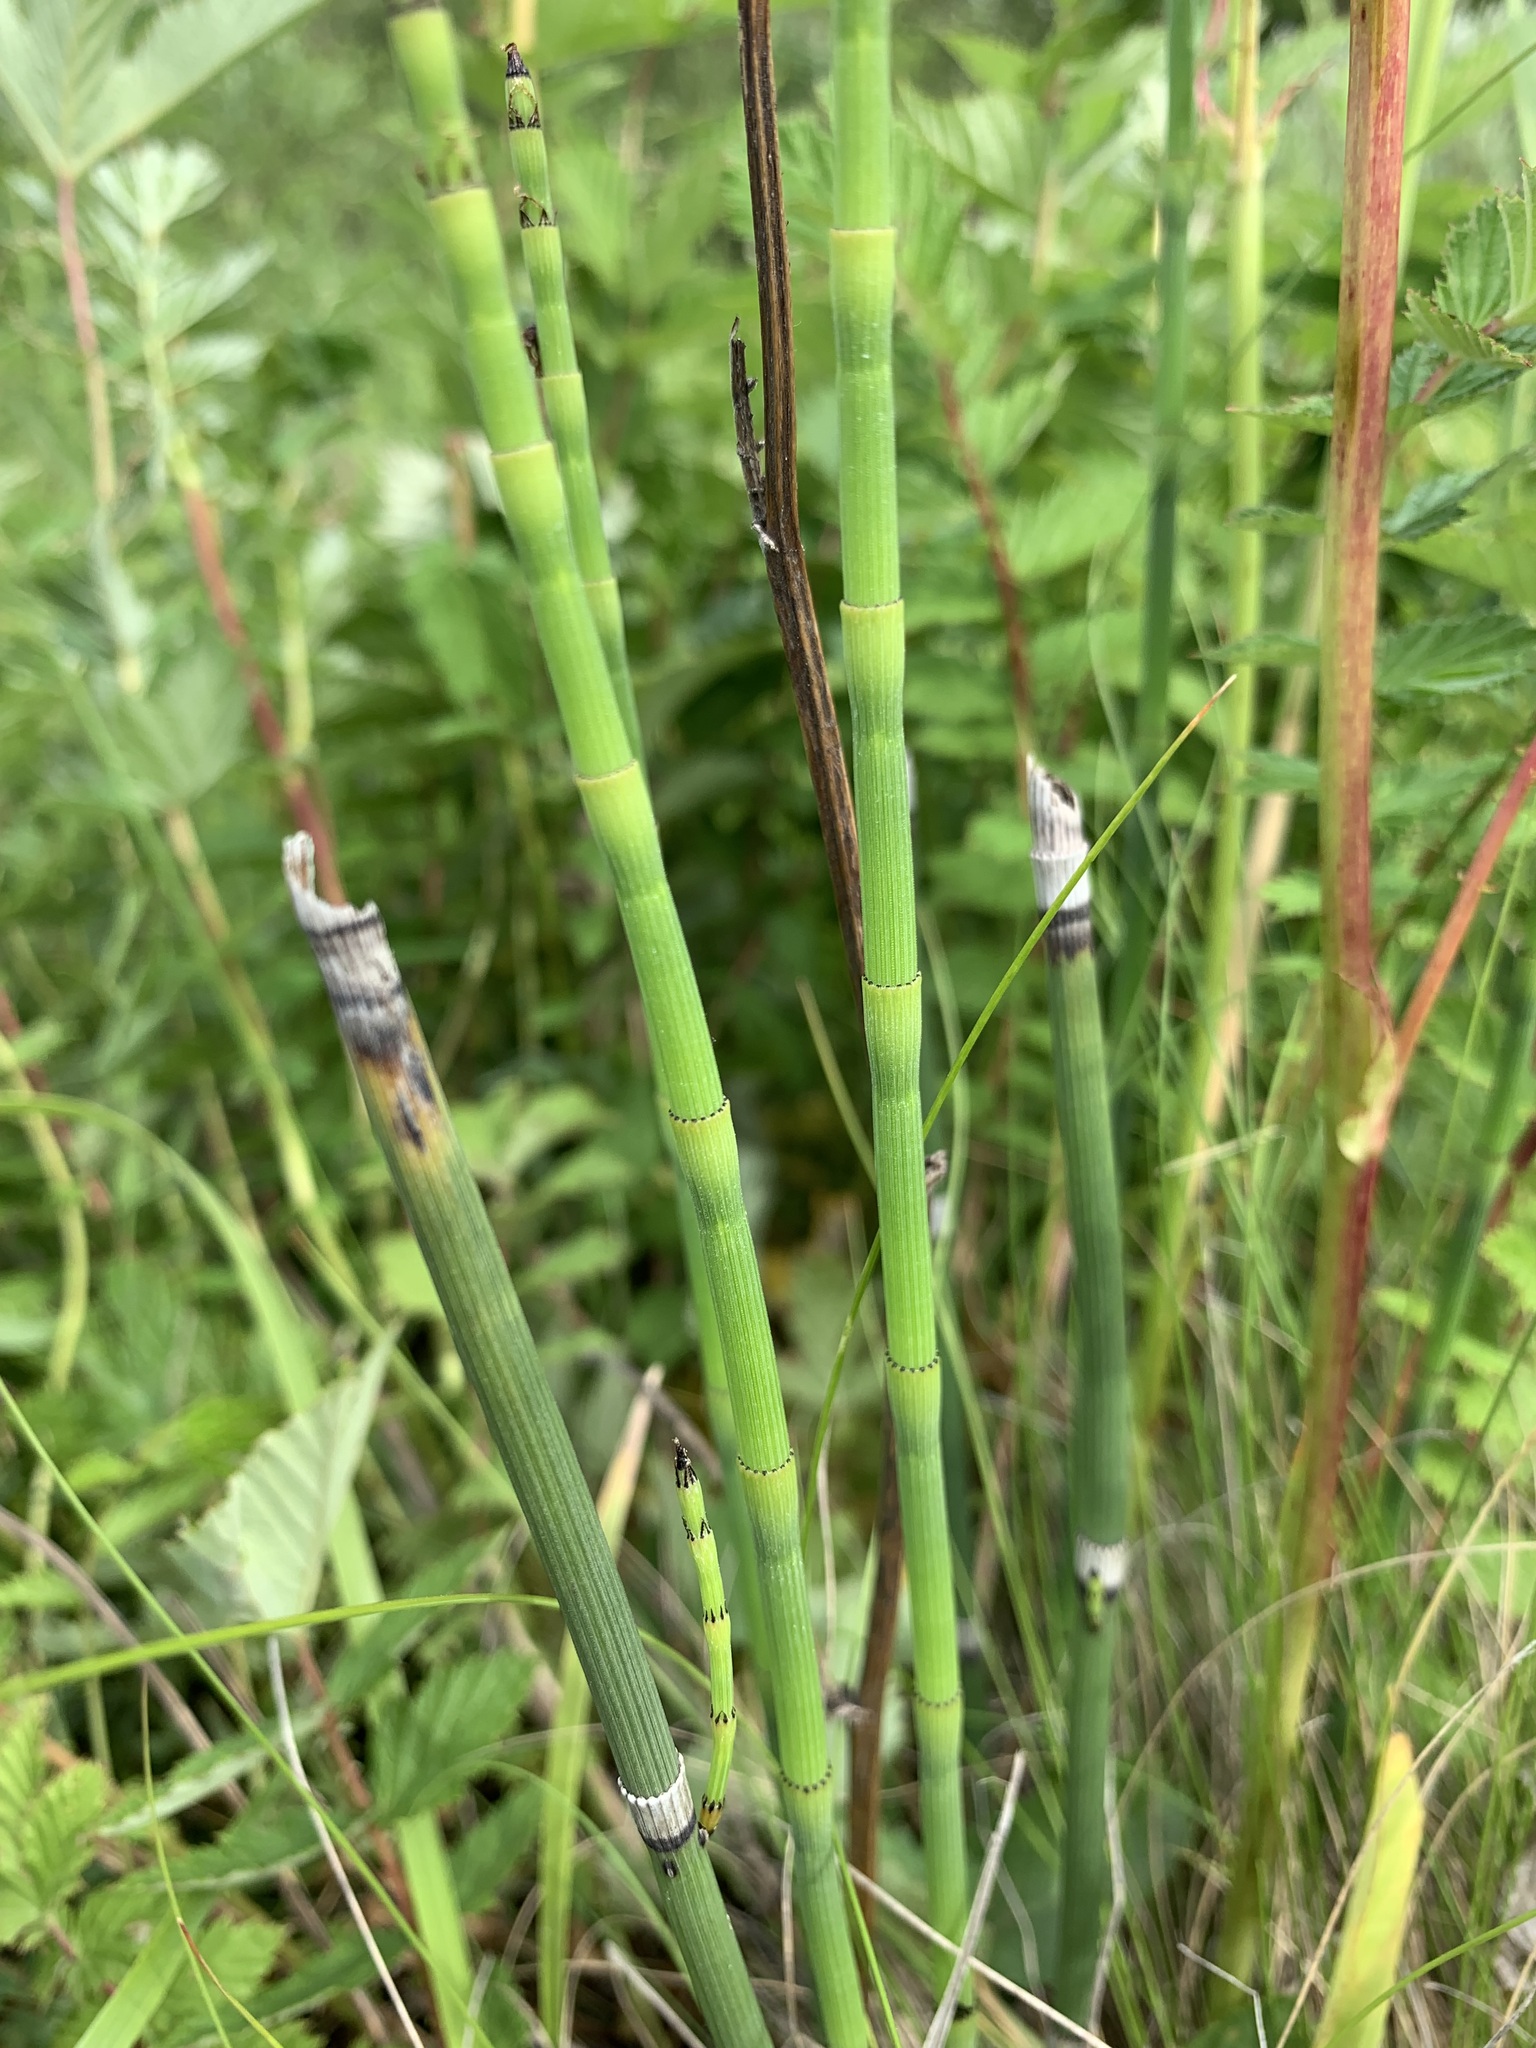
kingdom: Plantae
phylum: Tracheophyta
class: Polypodiopsida
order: Equisetales
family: Equisetaceae
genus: Equisetum
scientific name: Equisetum hyemale
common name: Rough horsetail
